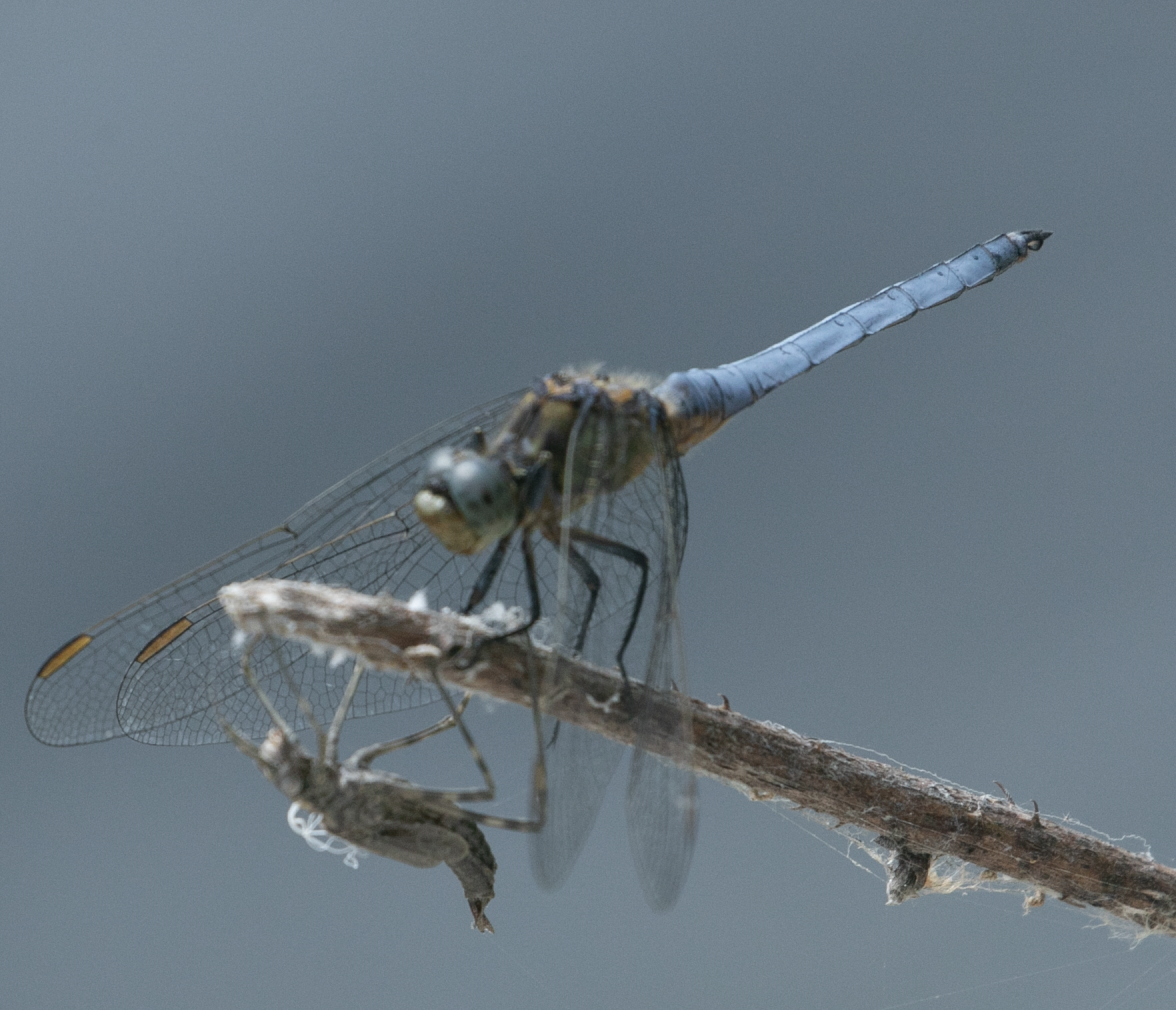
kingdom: Animalia
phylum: Arthropoda
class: Insecta
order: Odonata
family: Libellulidae
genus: Orthetrum
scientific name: Orthetrum coerulescens
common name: Keeled skimmer
